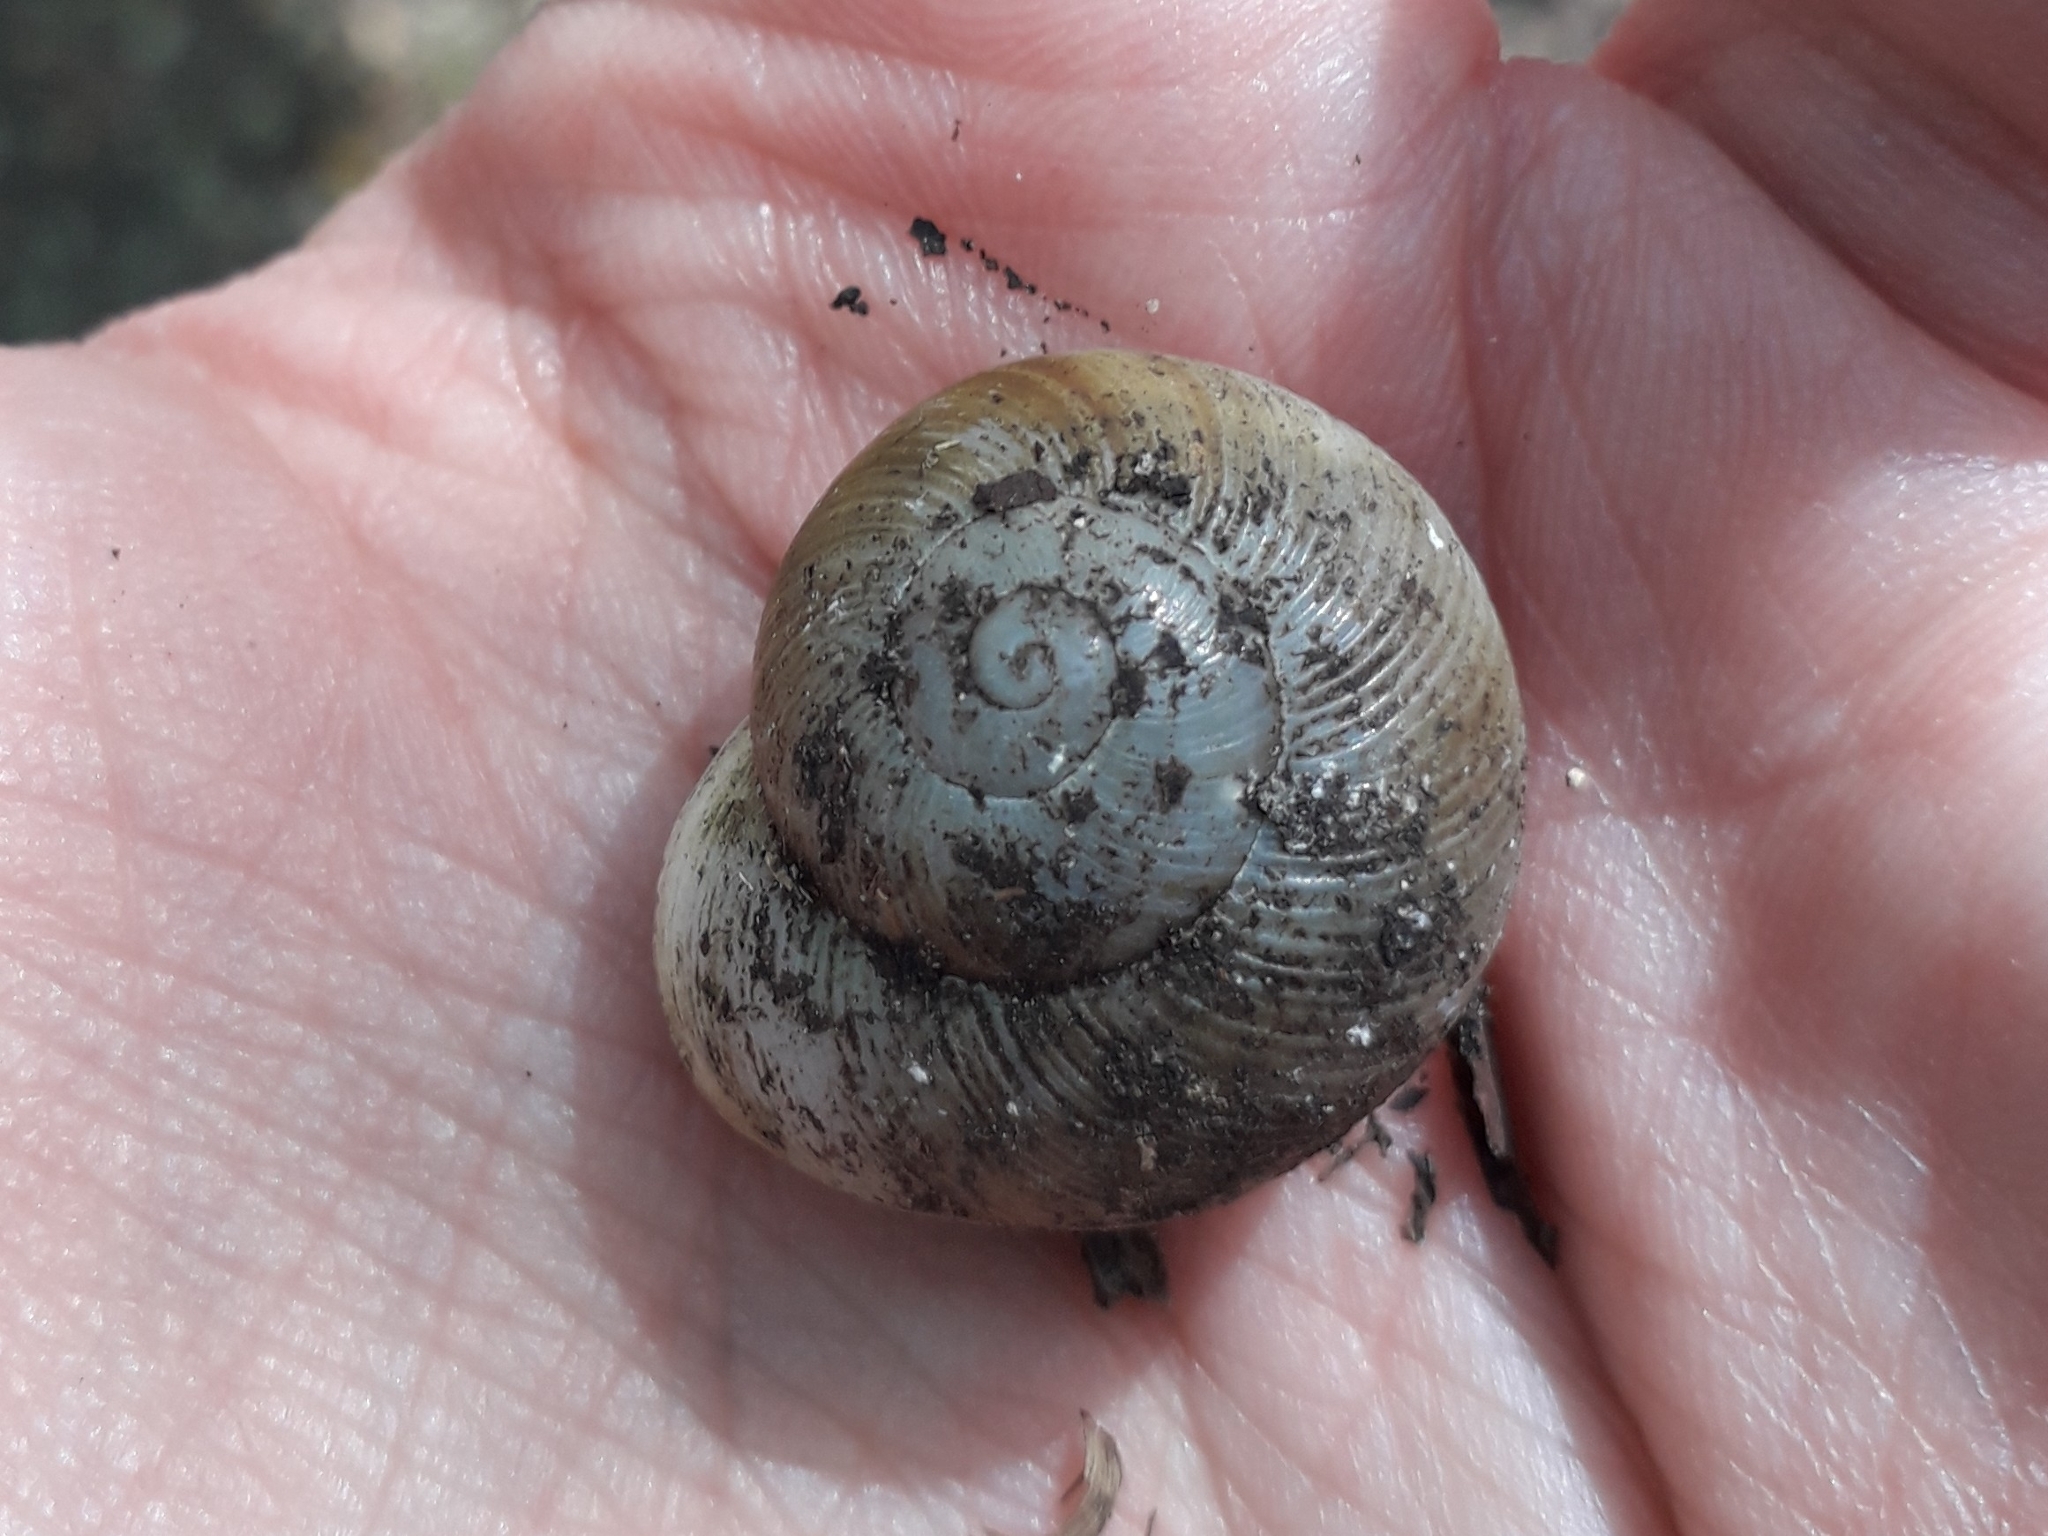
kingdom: Animalia
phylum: Mollusca
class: Gastropoda
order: Stylommatophora
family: Zachrysiidae
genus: Zachrysia
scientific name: Zachrysia provisoria
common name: Garden zachrysia
